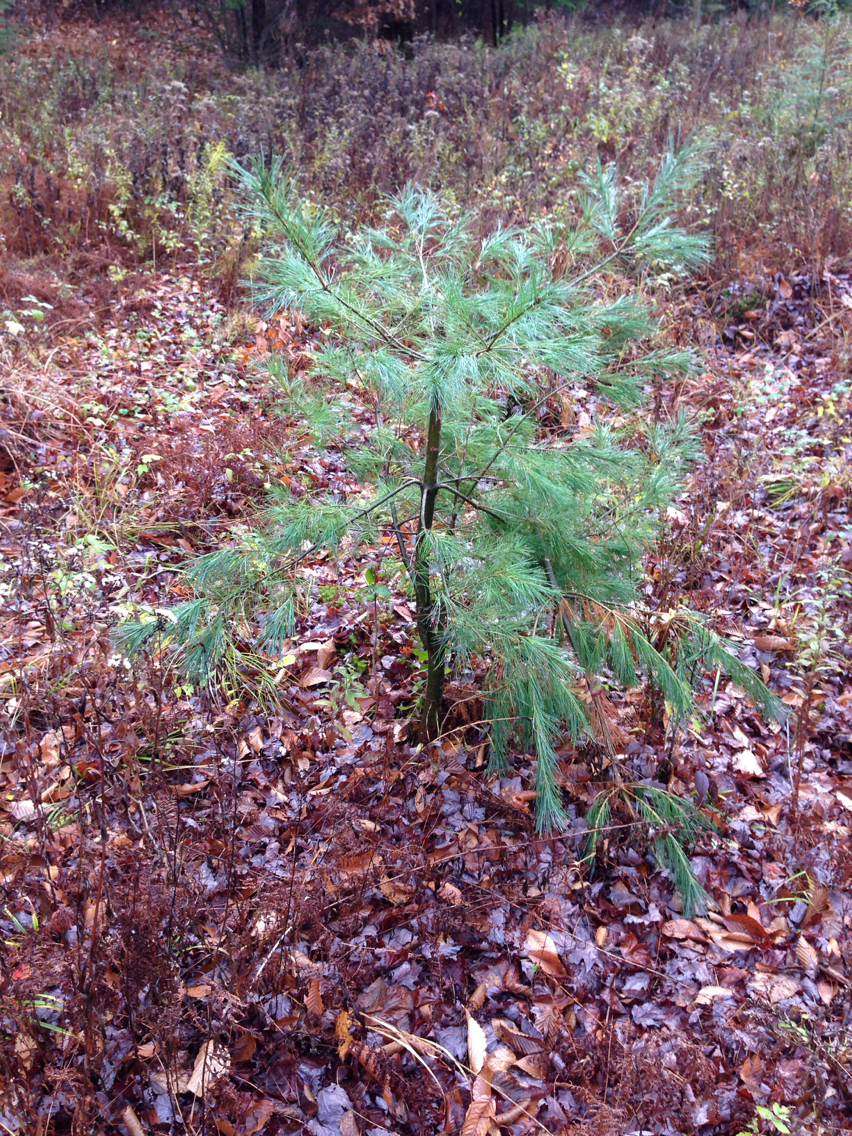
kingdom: Plantae
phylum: Tracheophyta
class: Pinopsida
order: Pinales
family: Pinaceae
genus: Pinus
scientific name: Pinus strobus
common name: Weymouth pine
